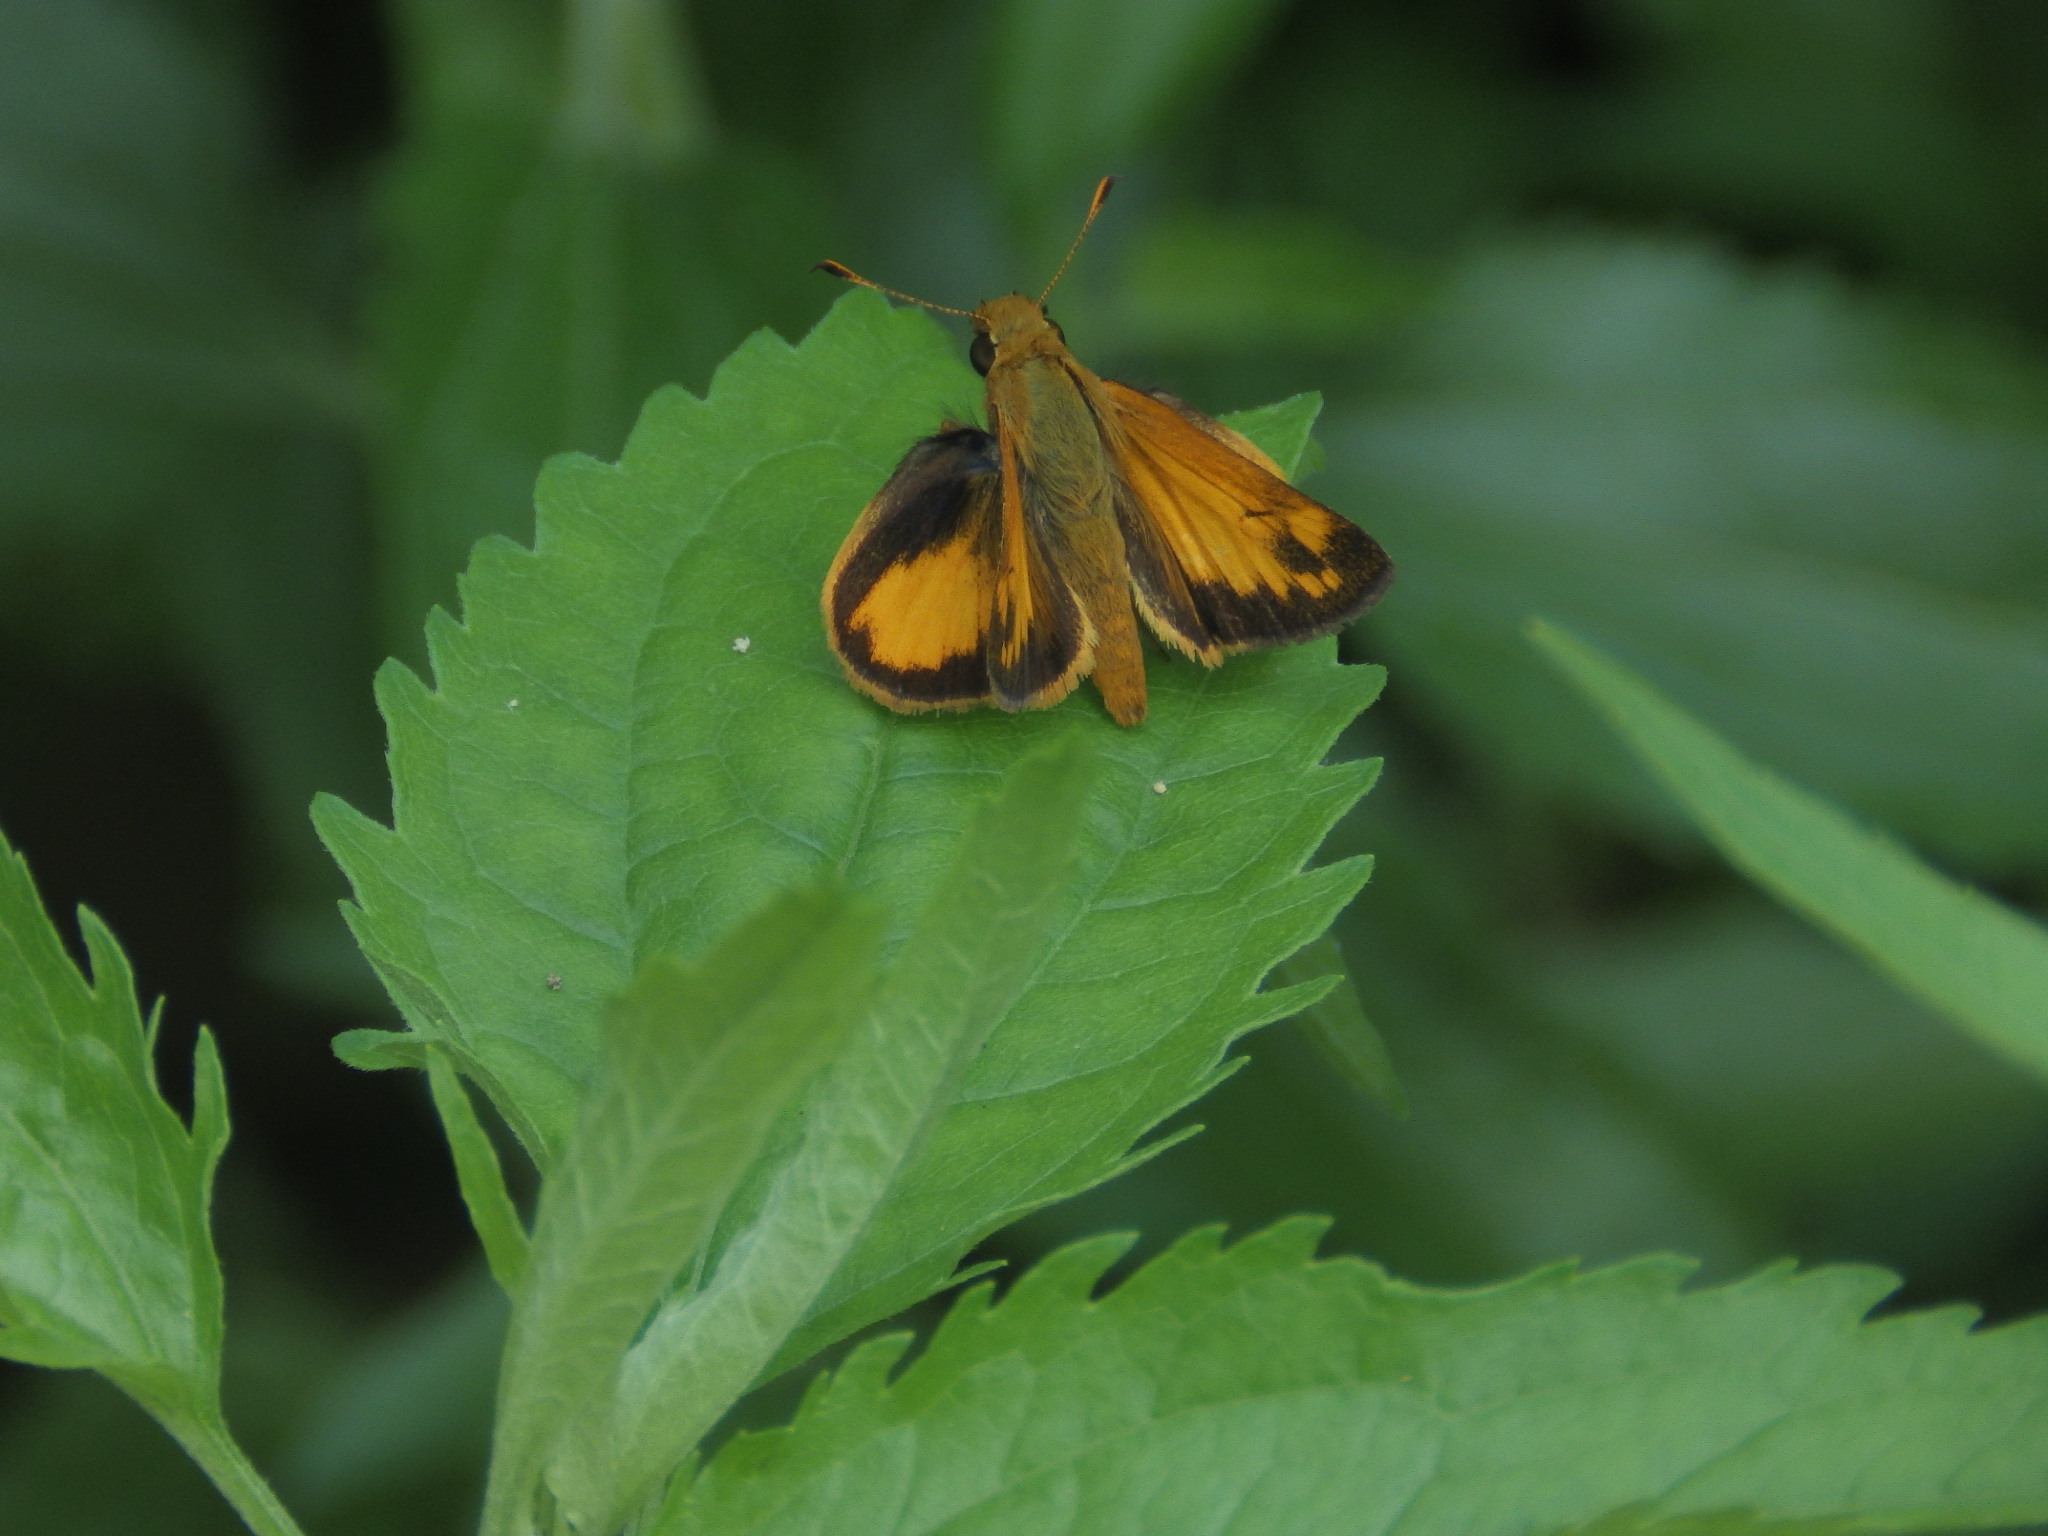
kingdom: Animalia
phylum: Arthropoda
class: Insecta
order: Lepidoptera
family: Hesperiidae
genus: Lon
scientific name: Lon zabulon
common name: Zabulon skipper
